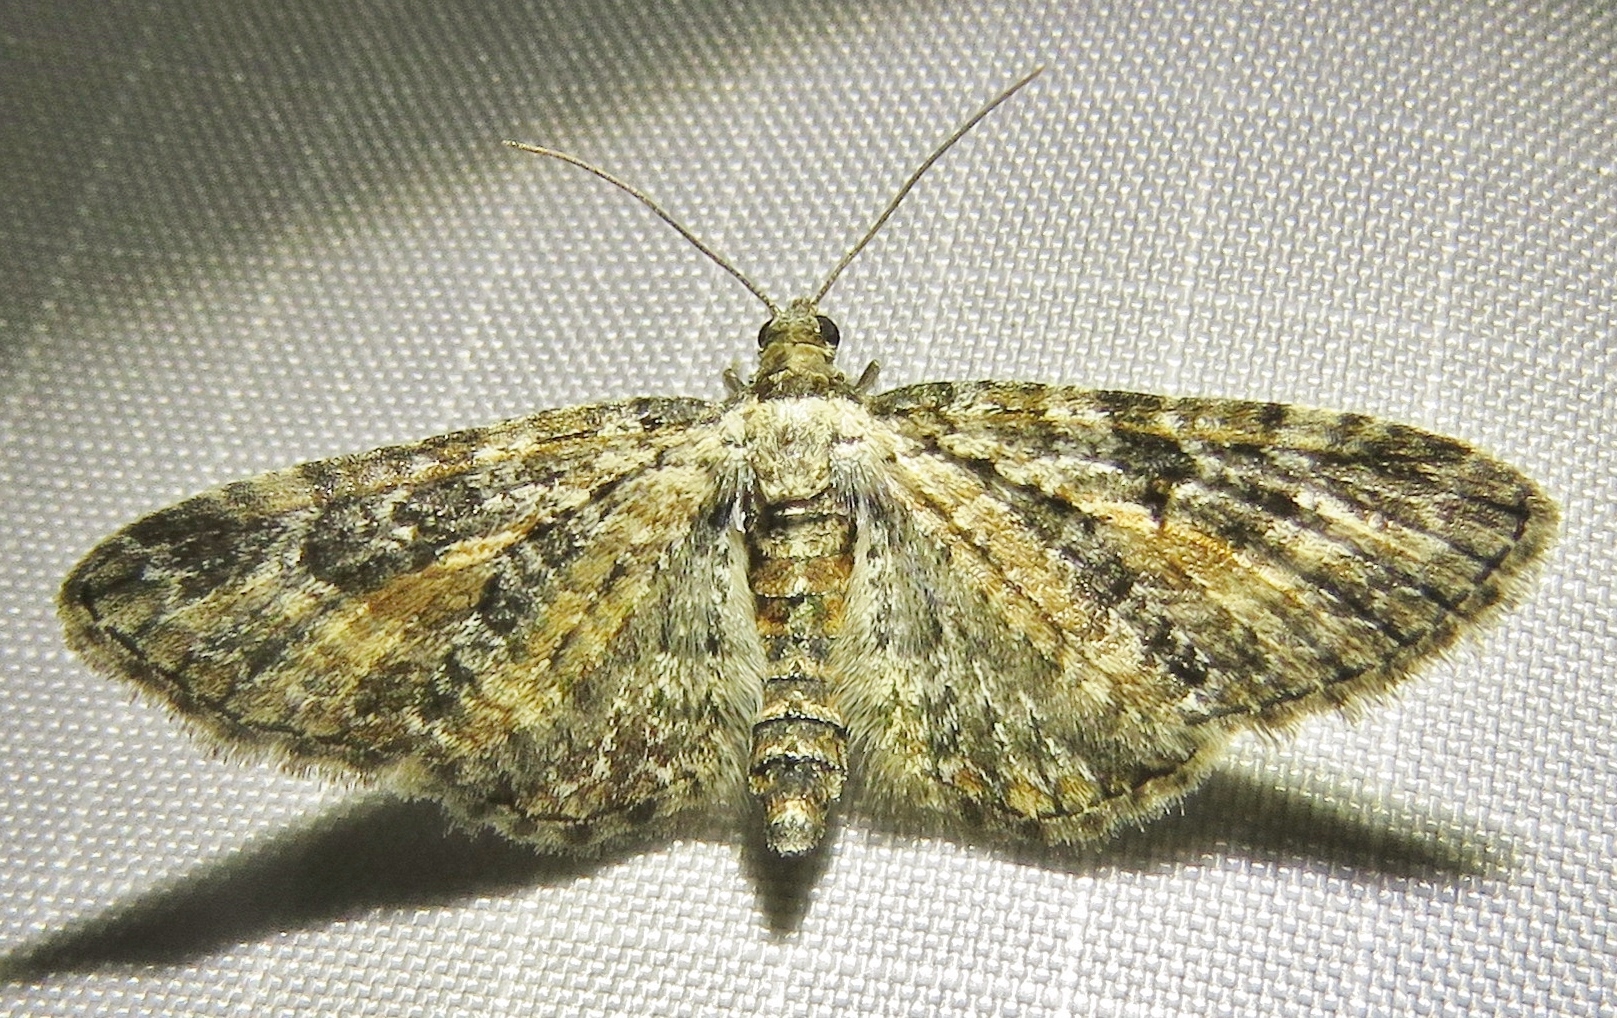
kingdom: Animalia
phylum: Arthropoda
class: Insecta
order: Lepidoptera
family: Geometridae
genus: Eupithecia
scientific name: Eupithecia icterata
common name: Tawny speckled pug
